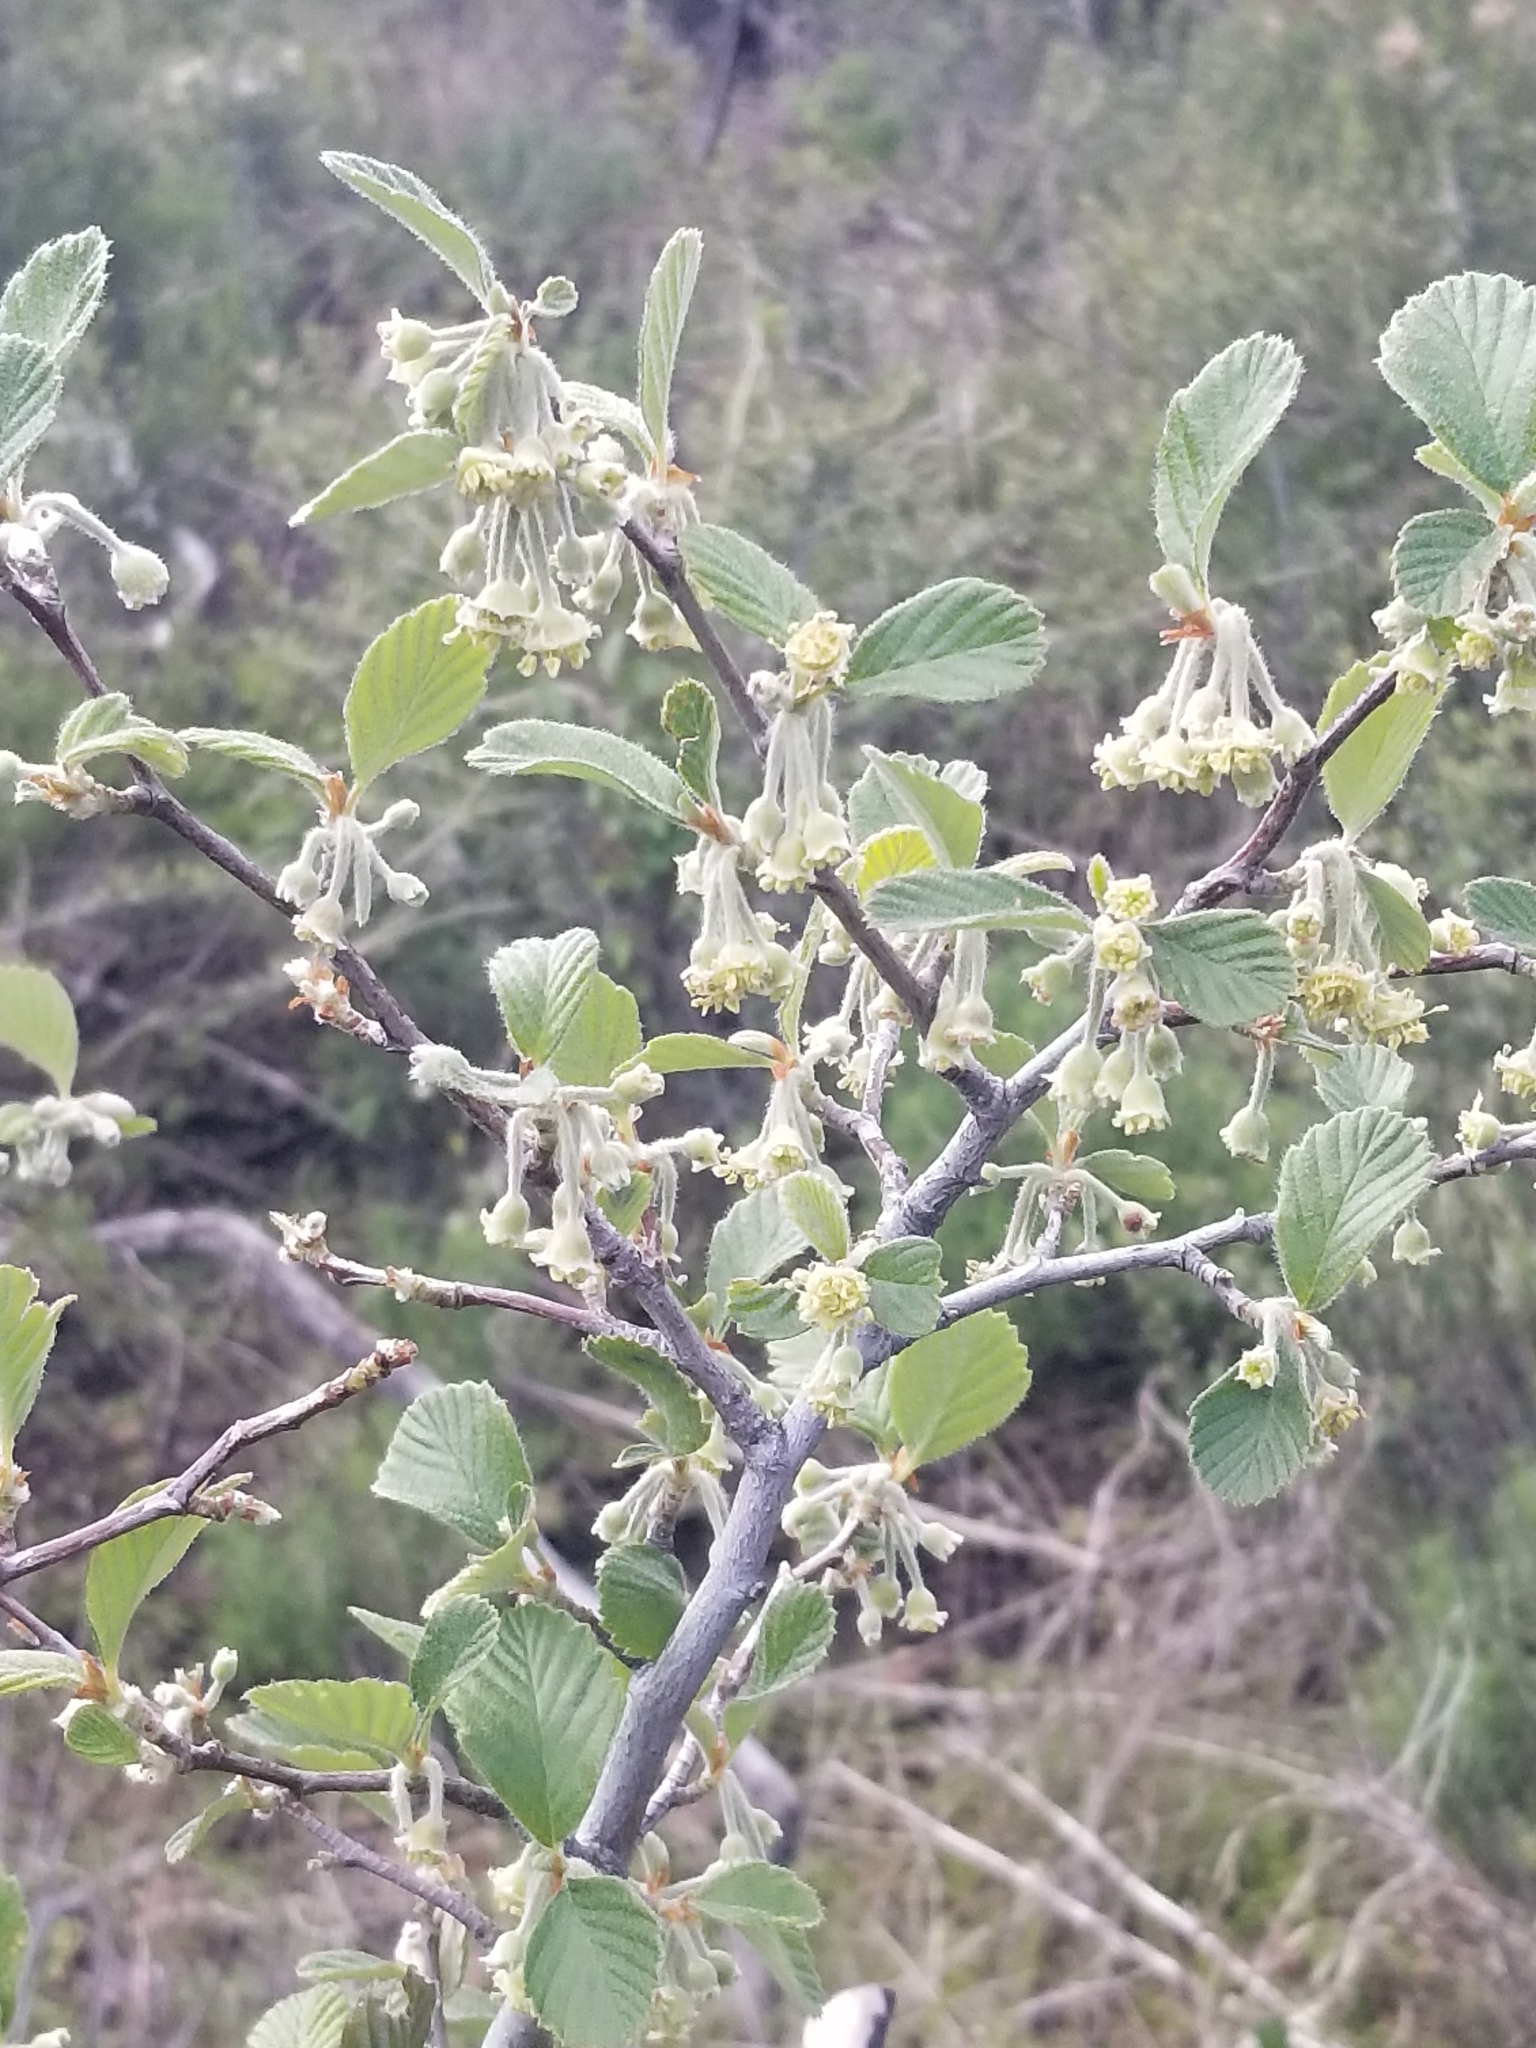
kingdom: Plantae
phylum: Tracheophyta
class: Magnoliopsida
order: Rosales
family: Rosaceae
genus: Cercocarpus
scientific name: Cercocarpus betuloides
